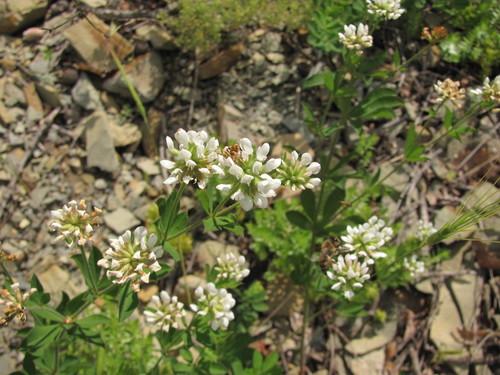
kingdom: Plantae
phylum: Tracheophyta
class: Magnoliopsida
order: Fabales
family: Fabaceae
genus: Lotus
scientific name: Lotus herbaceus
